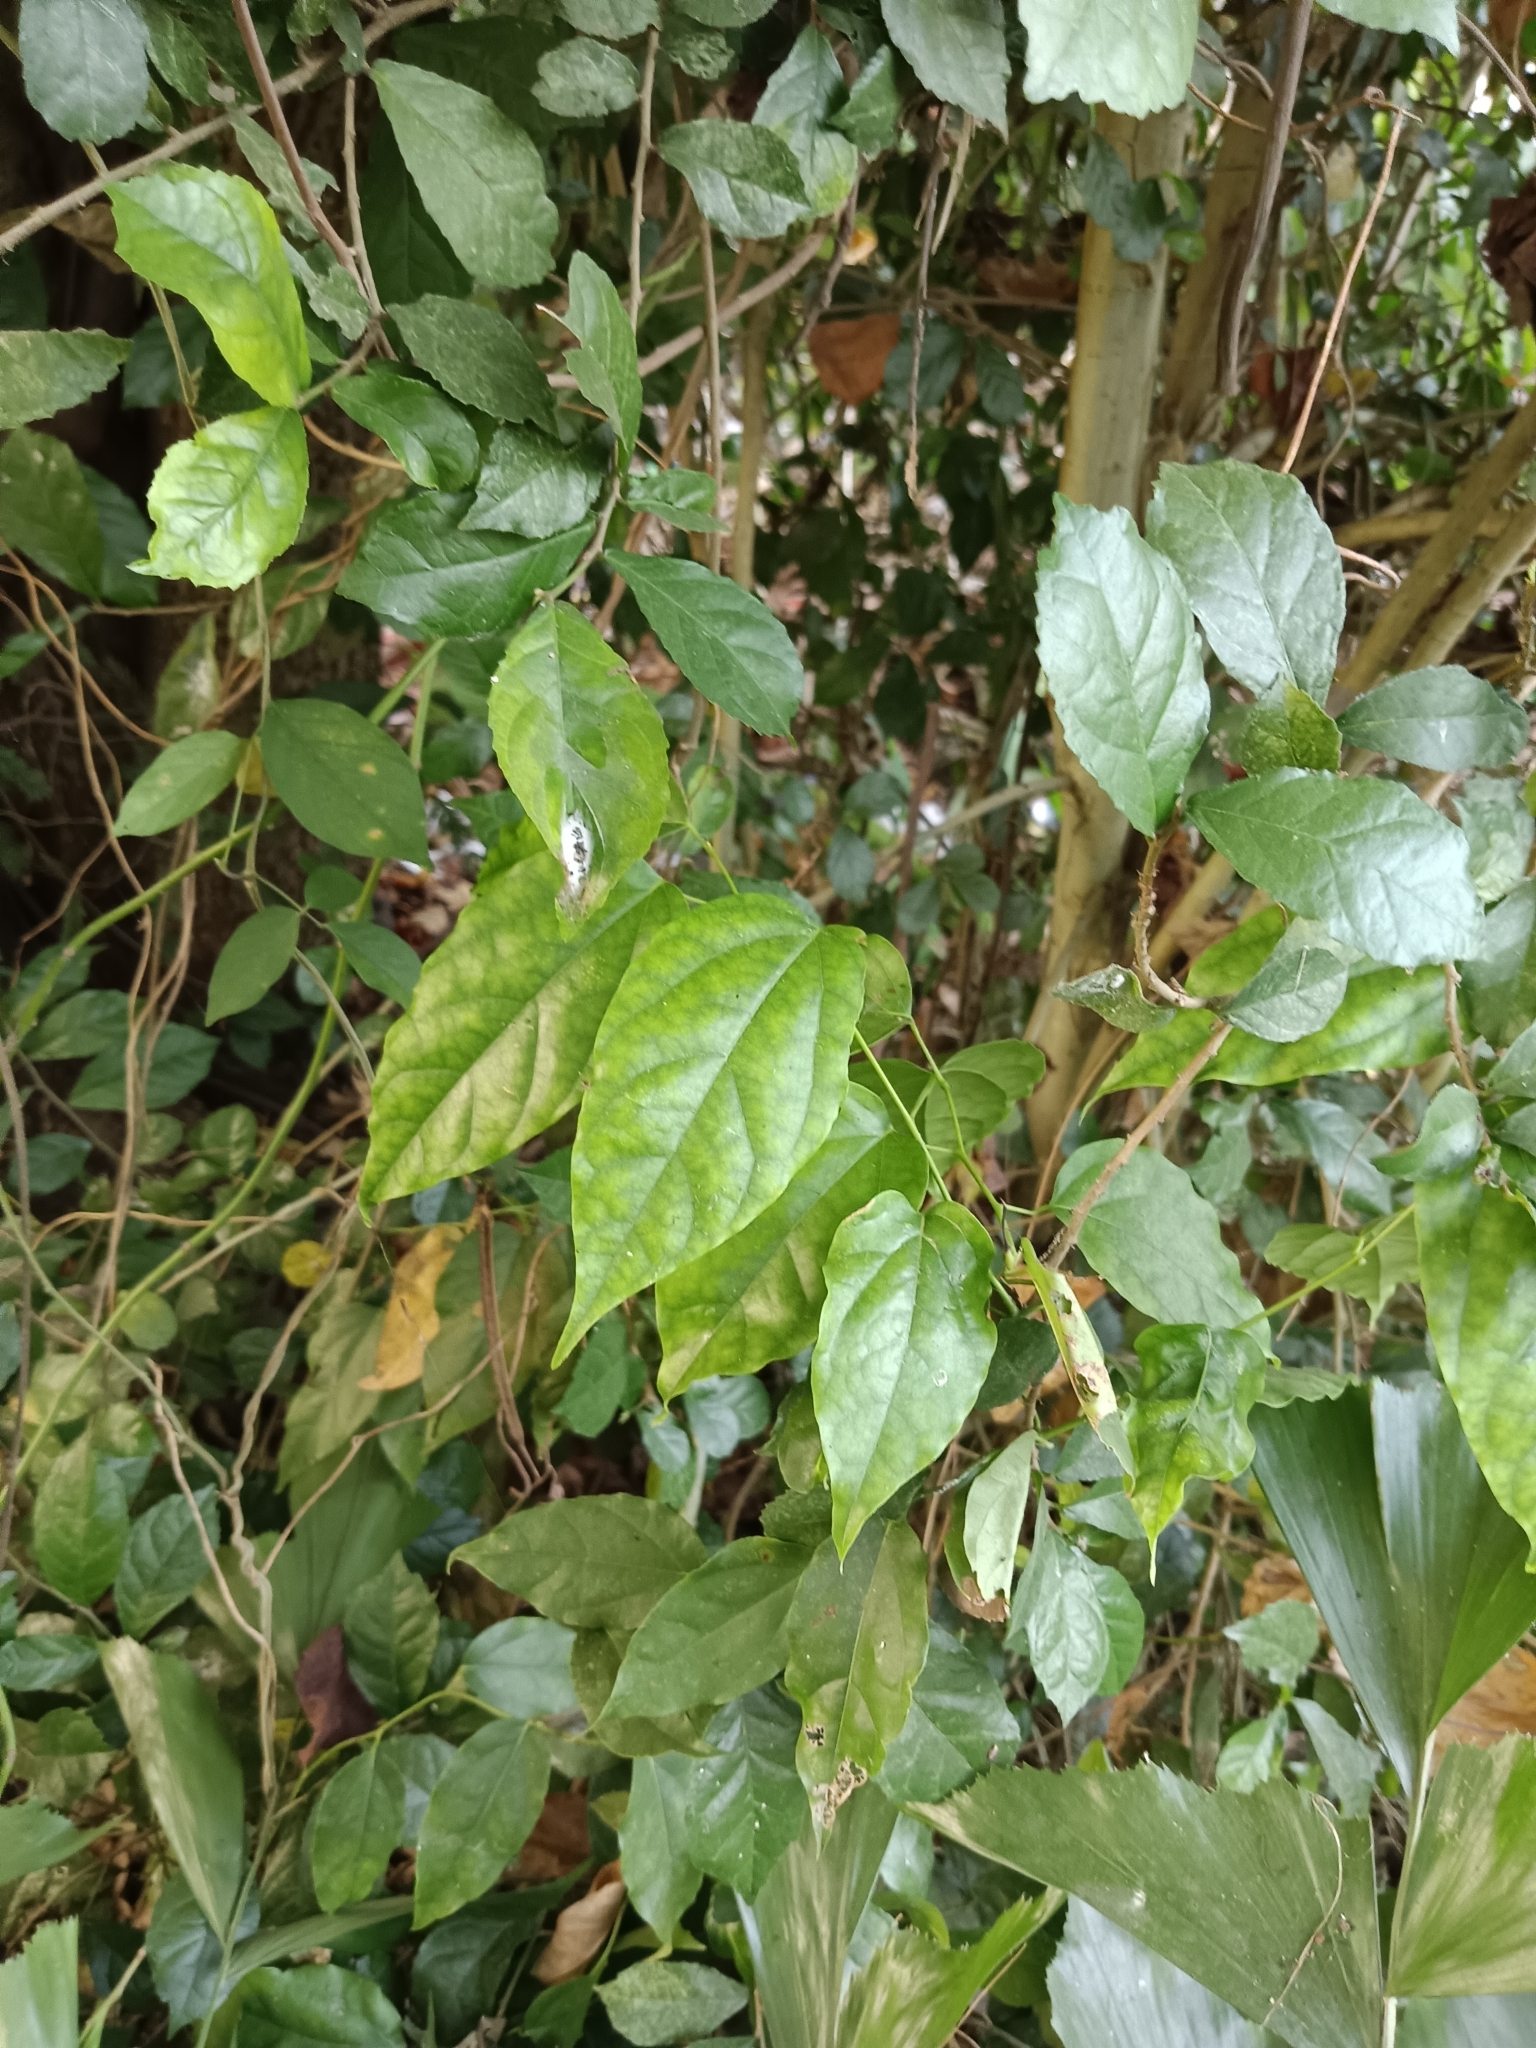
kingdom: Plantae
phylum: Tracheophyta
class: Magnoliopsida
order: Ranunculales
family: Menispermaceae
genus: Tiliacora
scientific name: Tiliacora acuminata
